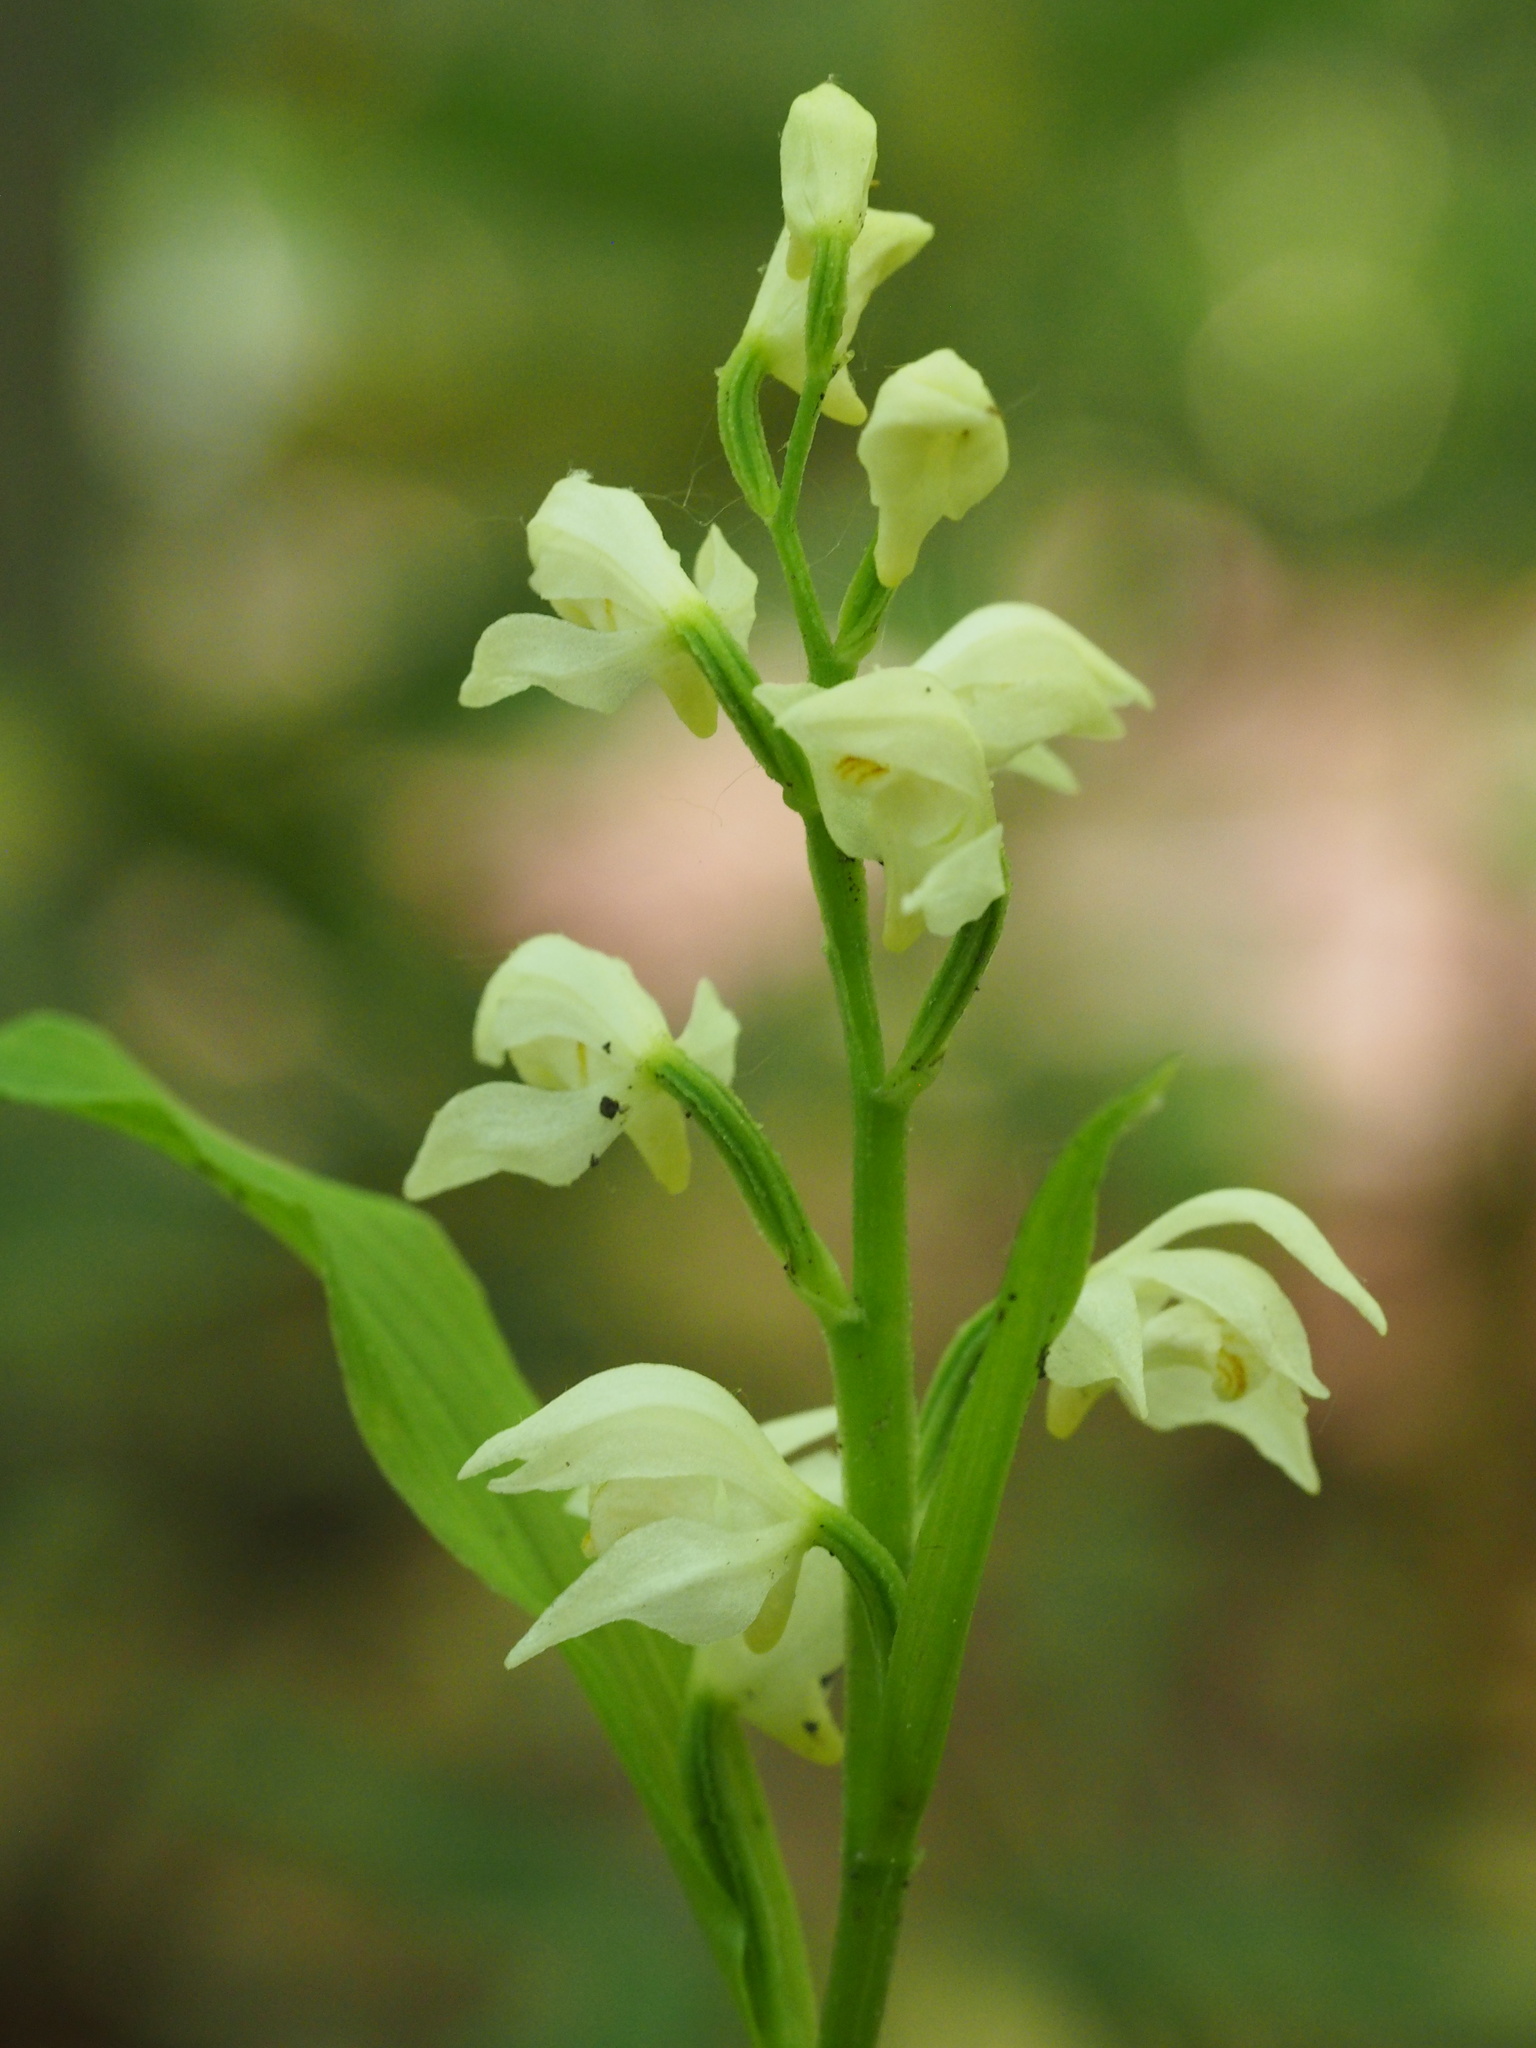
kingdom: Plantae
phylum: Tracheophyta
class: Liliopsida
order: Asparagales
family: Orchidaceae
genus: Cephalanthera
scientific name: Cephalanthera erecta
